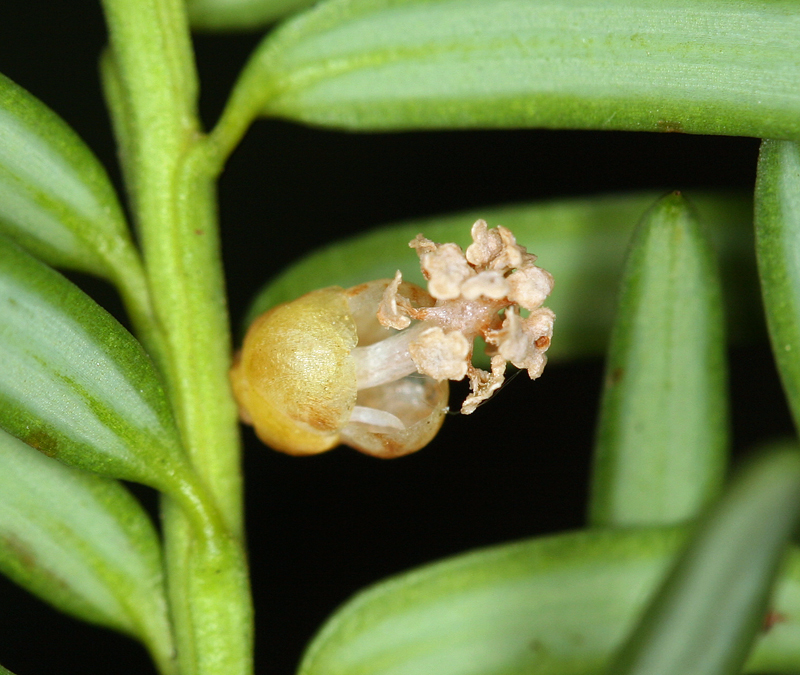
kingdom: Plantae
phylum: Tracheophyta
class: Pinopsida
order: Pinales
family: Taxaceae
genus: Taxus
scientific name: Taxus brevifolia
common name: Pacific yew
